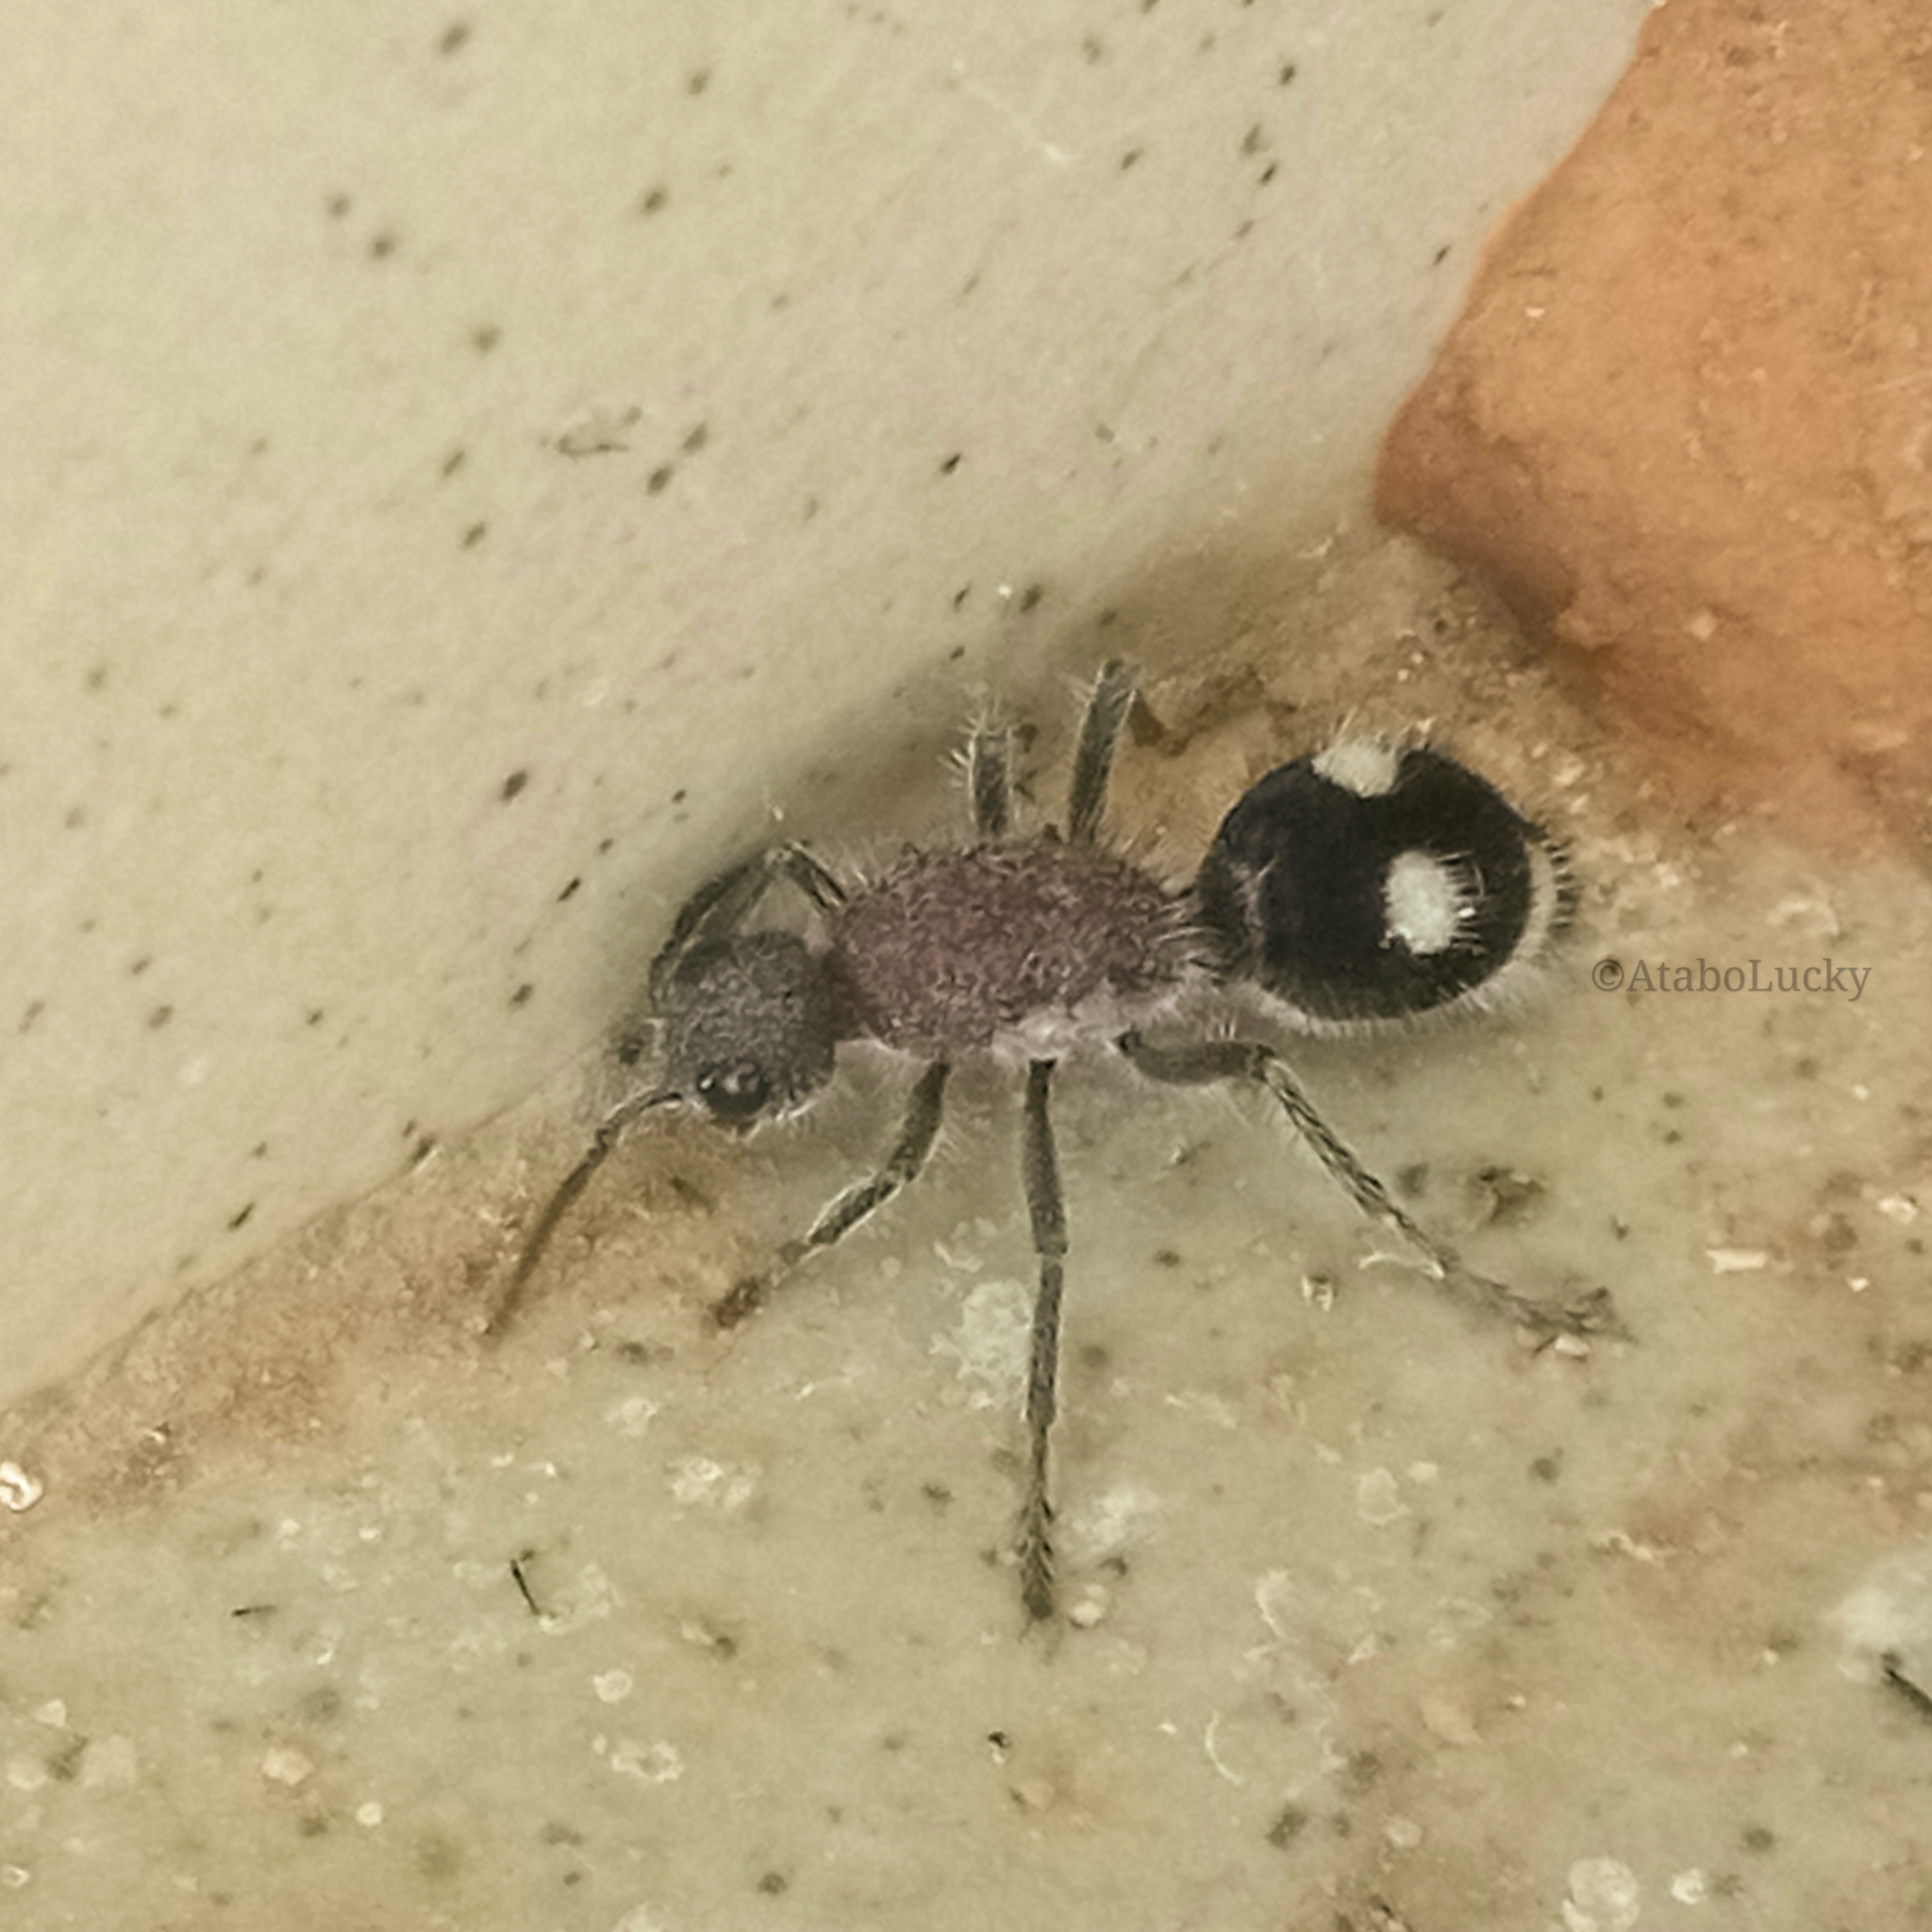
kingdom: Animalia
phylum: Arthropoda
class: Insecta
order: Hymenoptera
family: Mutillidae
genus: Dolichomutilla
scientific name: Dolichomutilla
